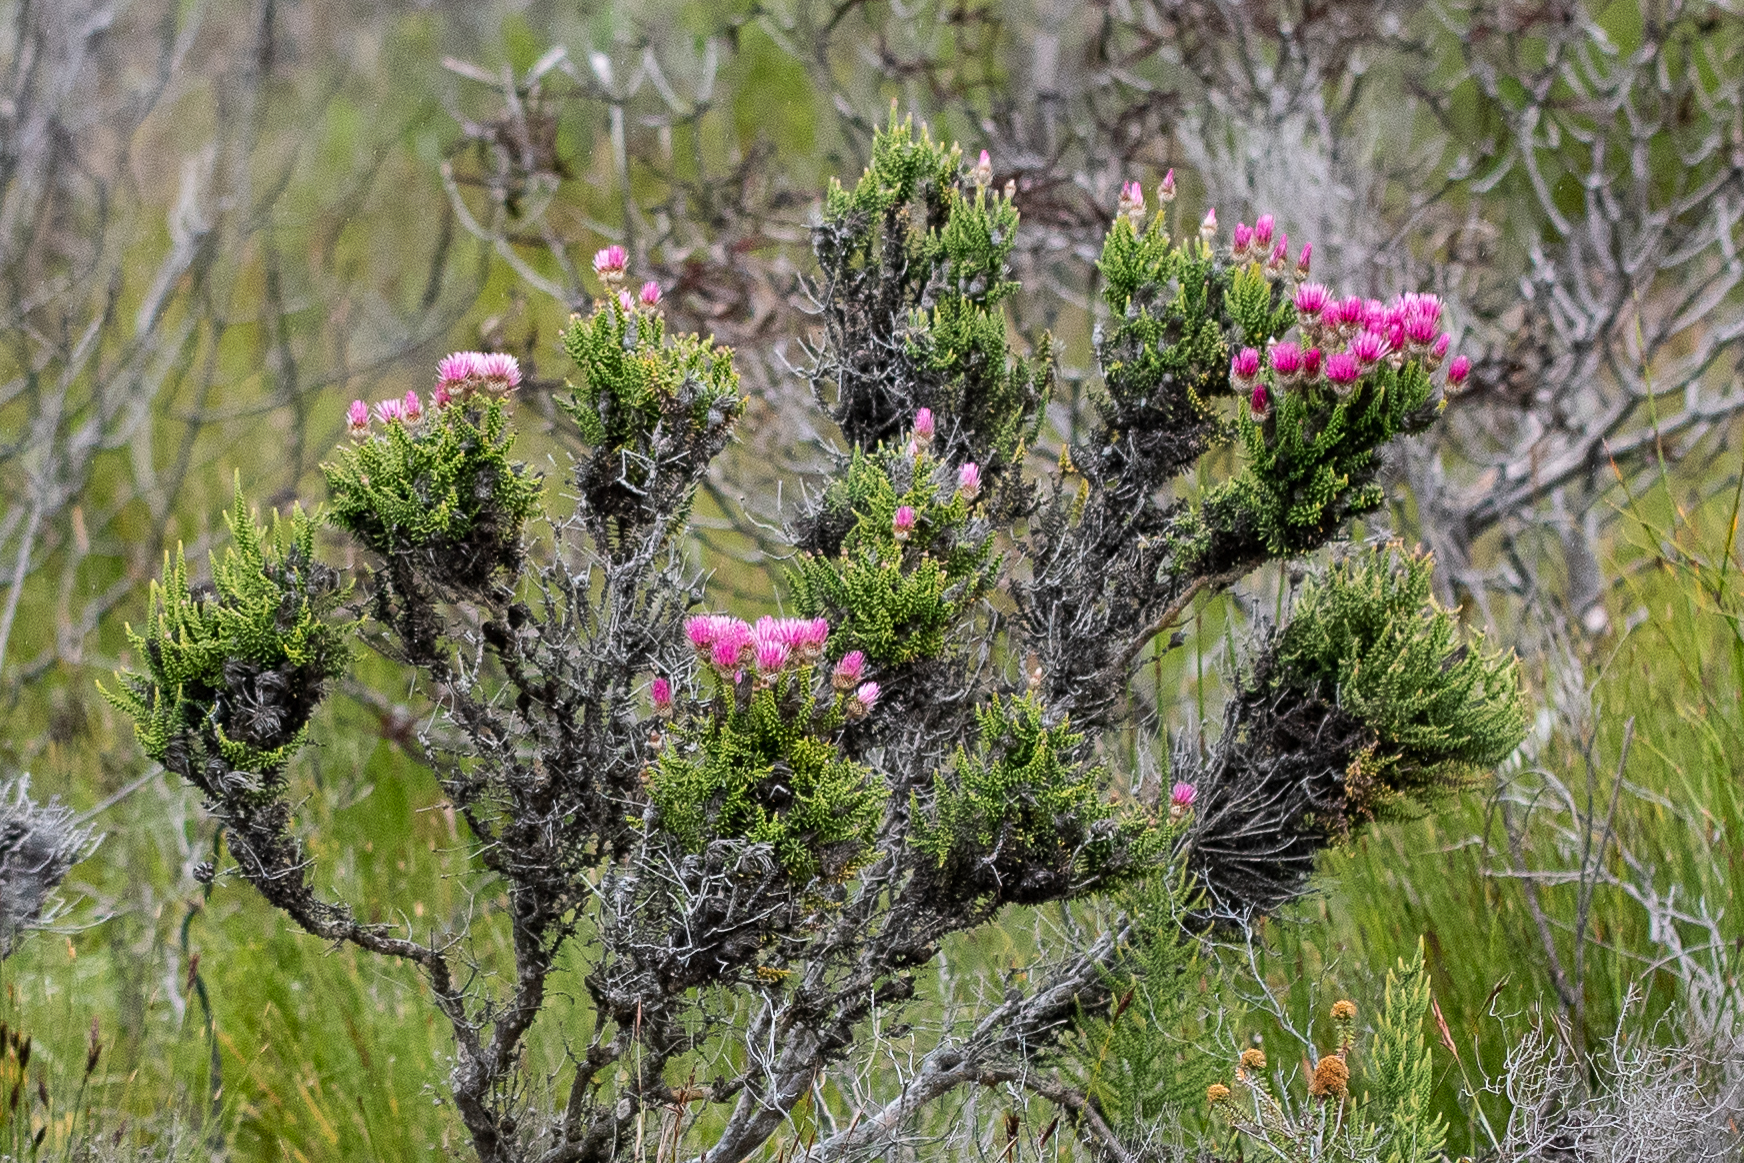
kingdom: Plantae
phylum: Tracheophyta
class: Magnoliopsida
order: Asterales
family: Asteraceae
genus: Phaenocoma
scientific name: Phaenocoma prolifera
